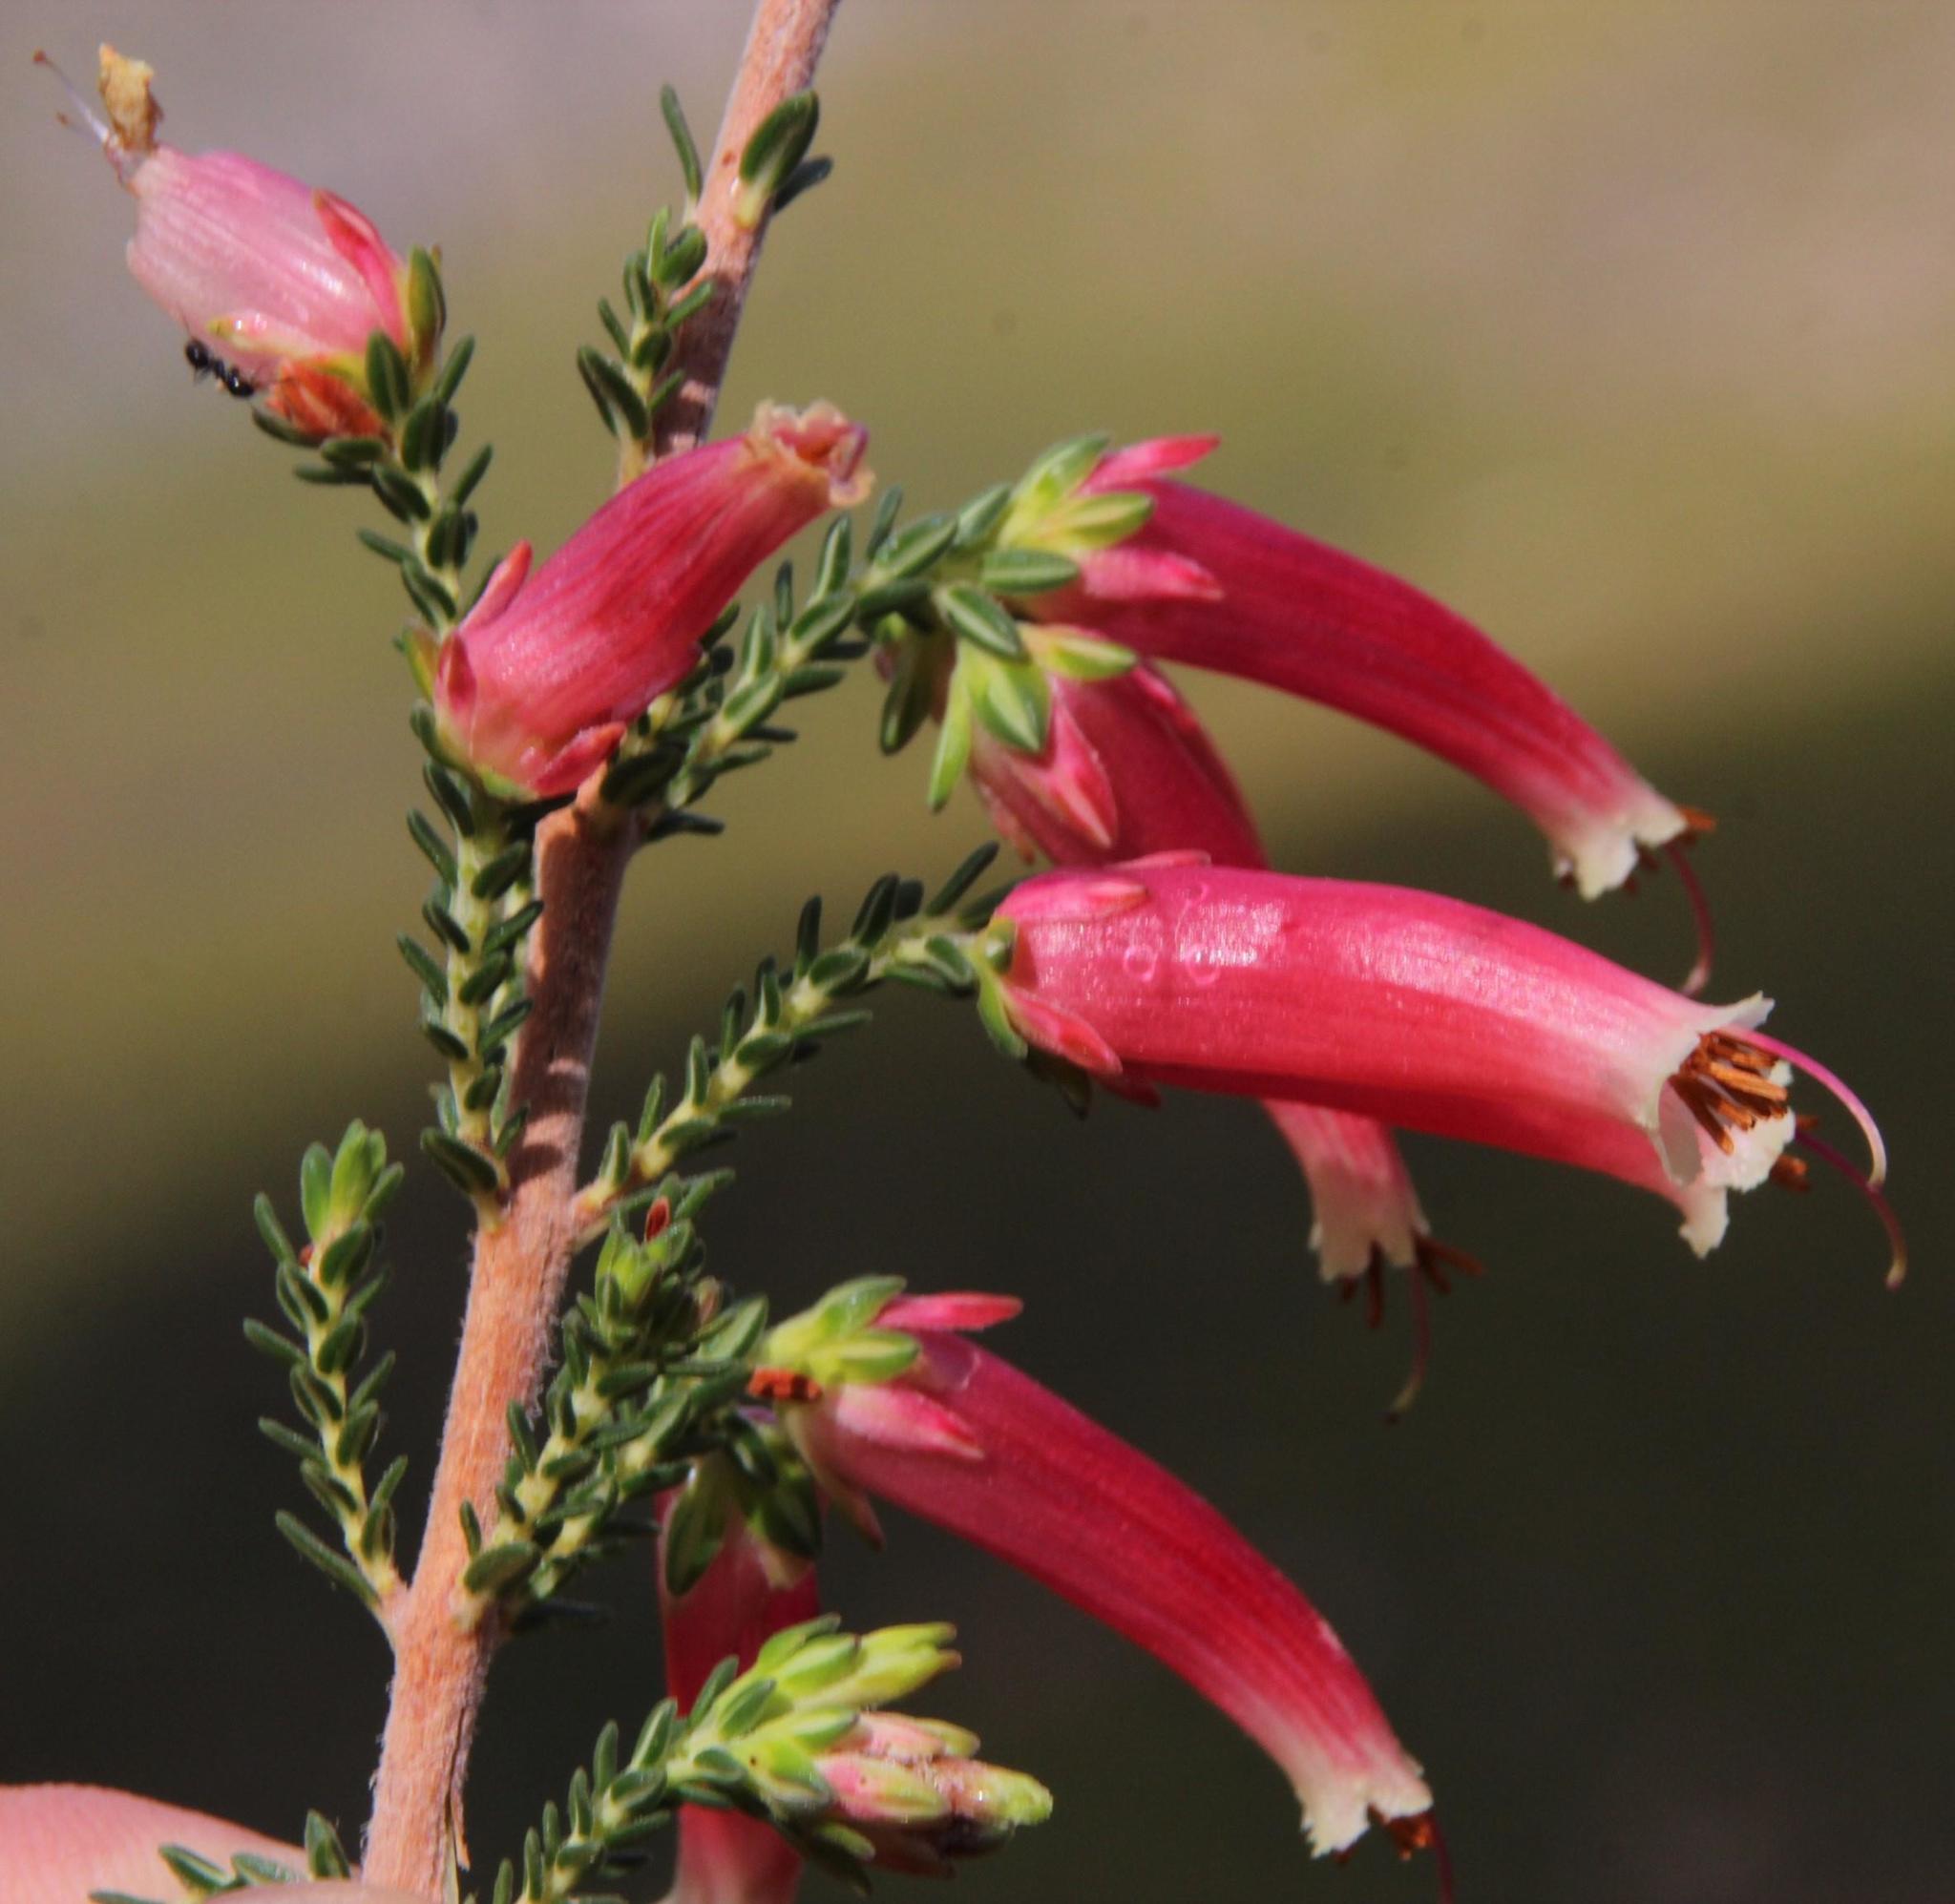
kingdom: Plantae
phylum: Tracheophyta
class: Magnoliopsida
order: Ericales
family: Ericaceae
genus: Erica
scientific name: Erica versicolor
